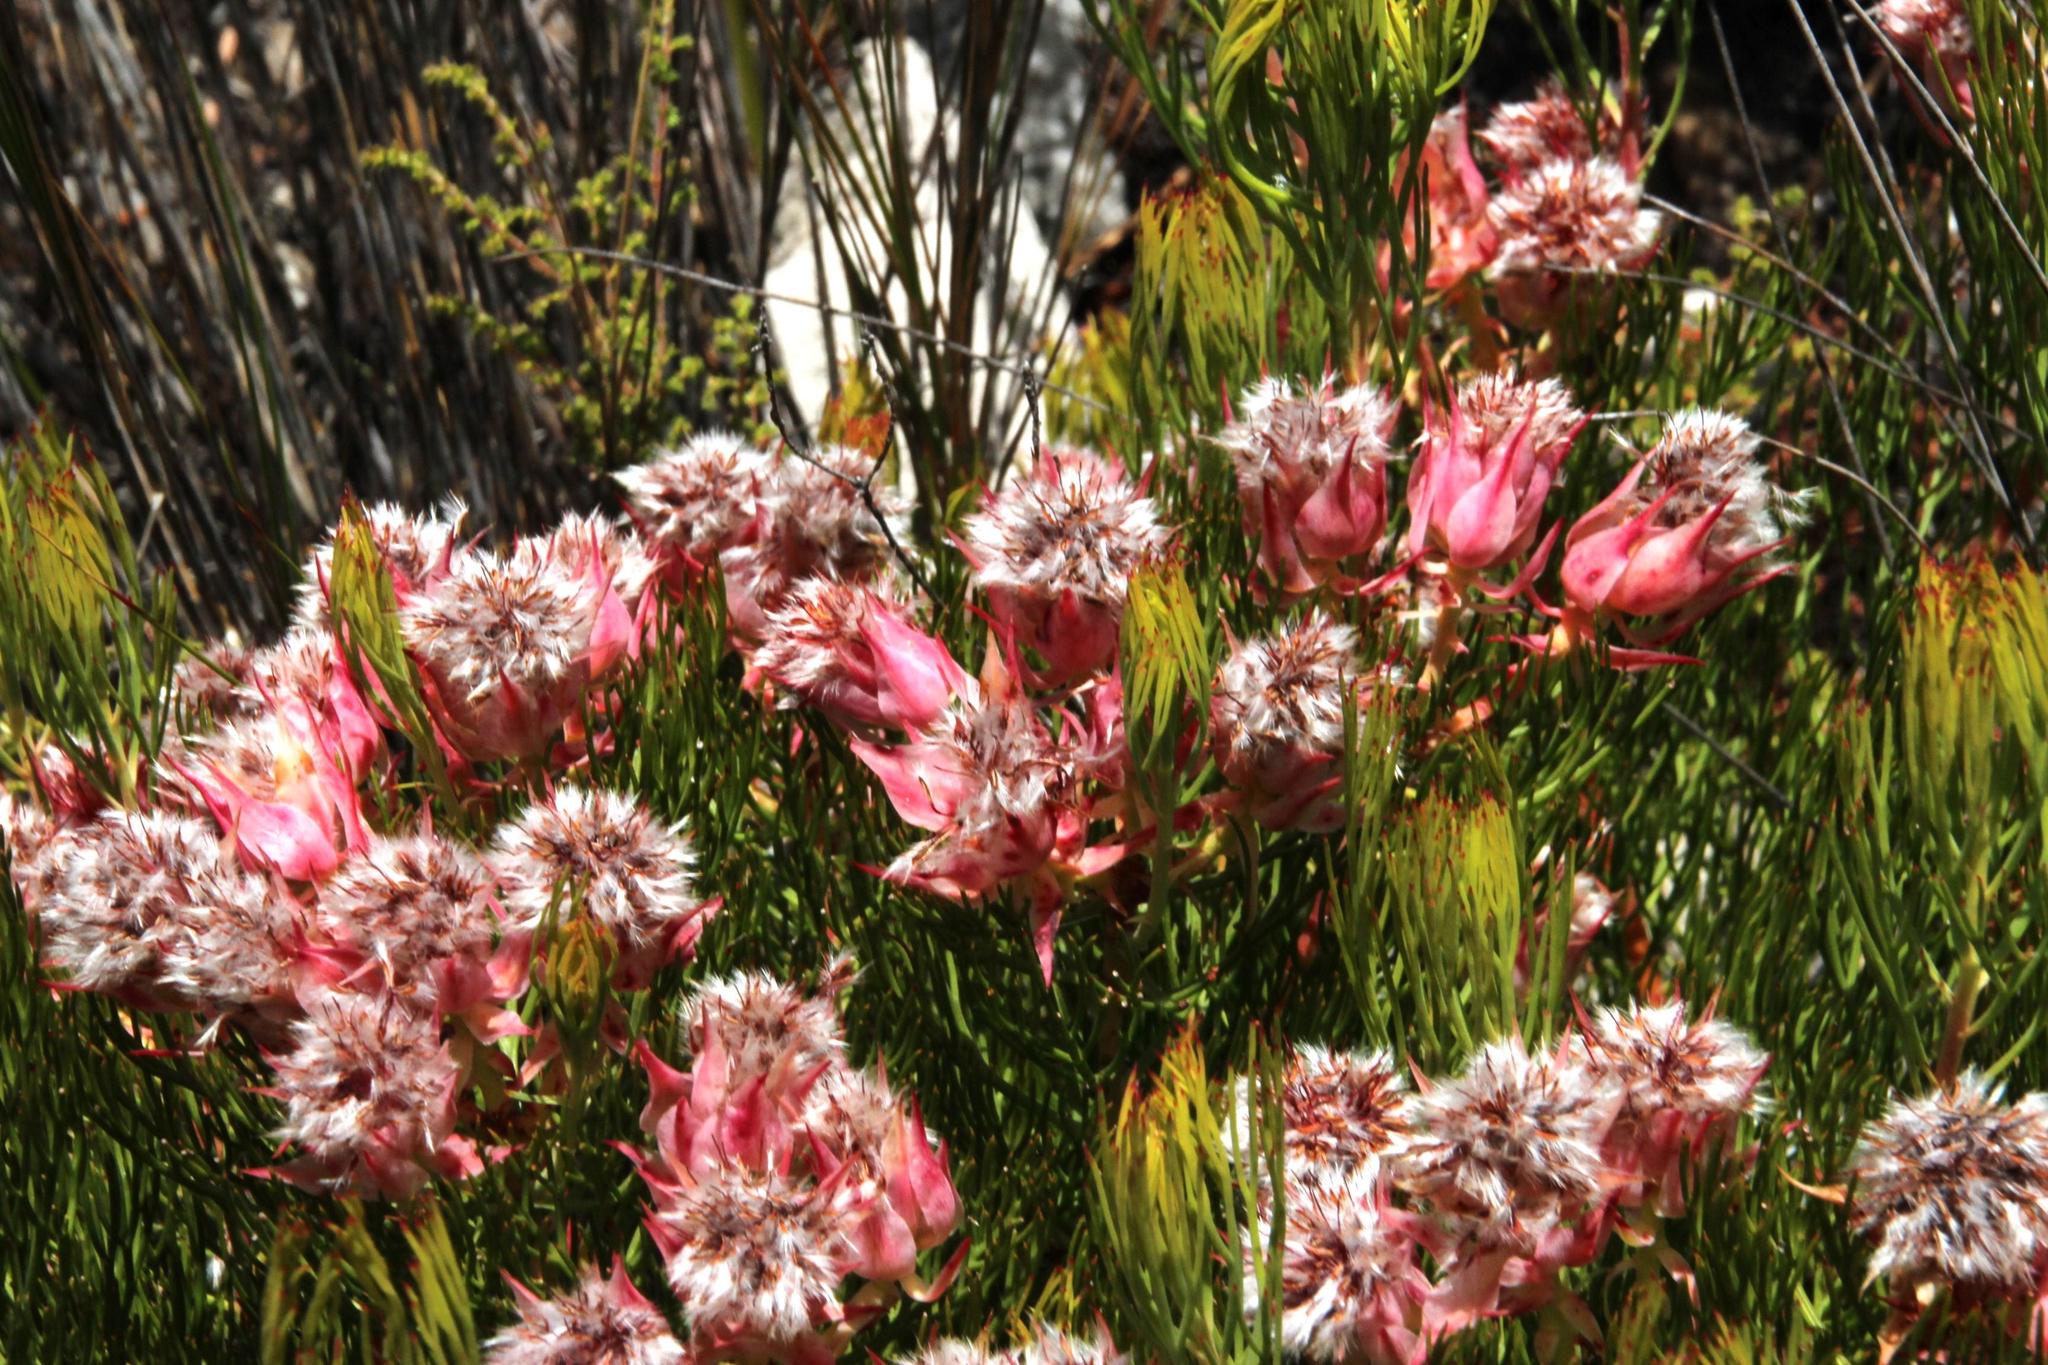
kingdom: Plantae
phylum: Tracheophyta
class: Magnoliopsida
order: Proteales
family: Proteaceae
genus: Serruria
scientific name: Serruria rosea
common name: Rose spiderhead
